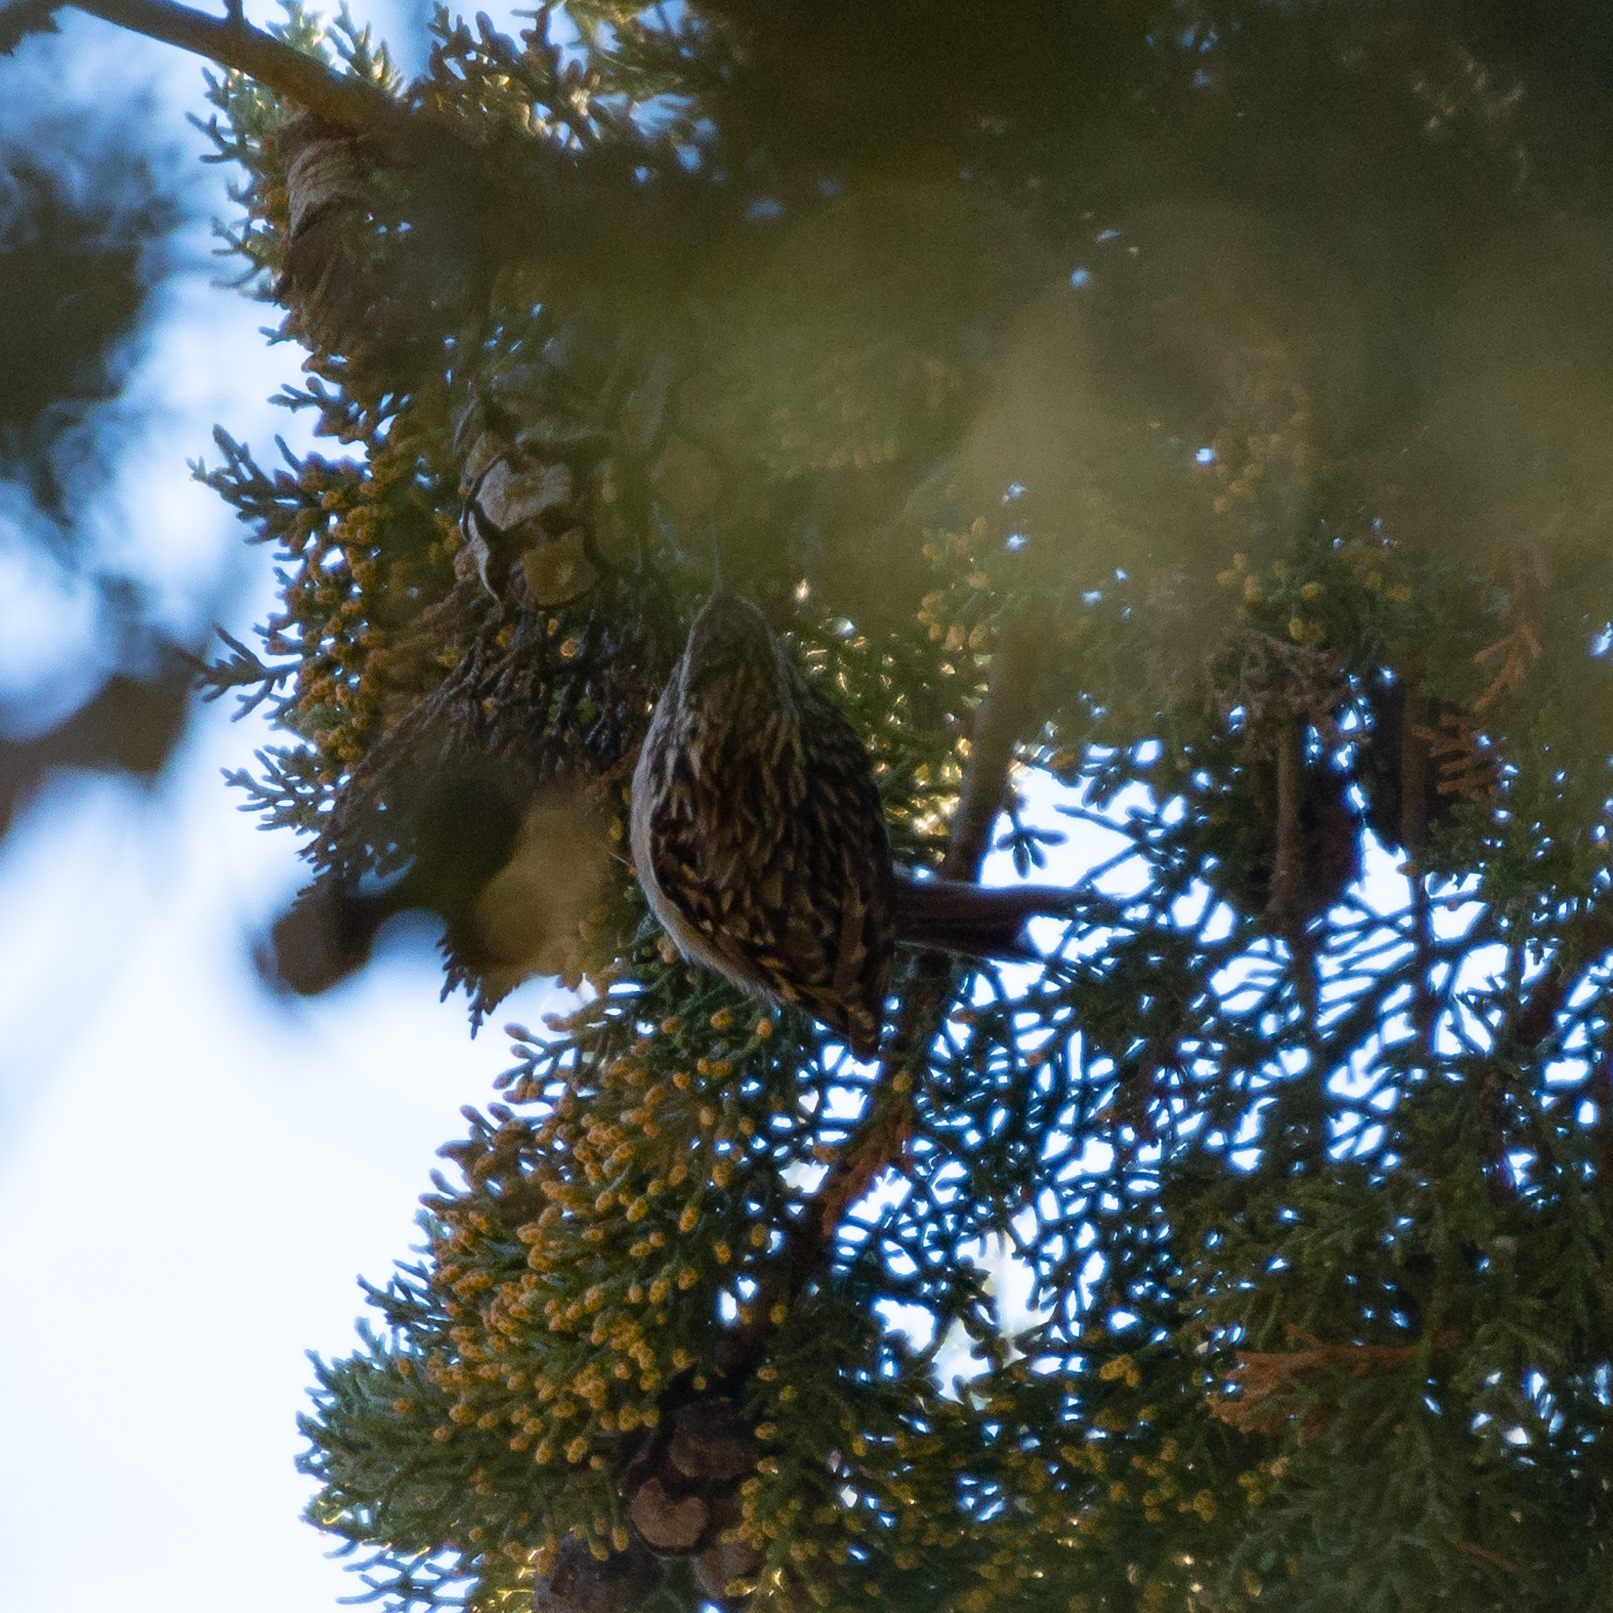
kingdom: Animalia
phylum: Chordata
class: Aves
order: Passeriformes
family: Certhiidae
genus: Certhia
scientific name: Certhia brachydactyla
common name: Short-toed treecreeper
